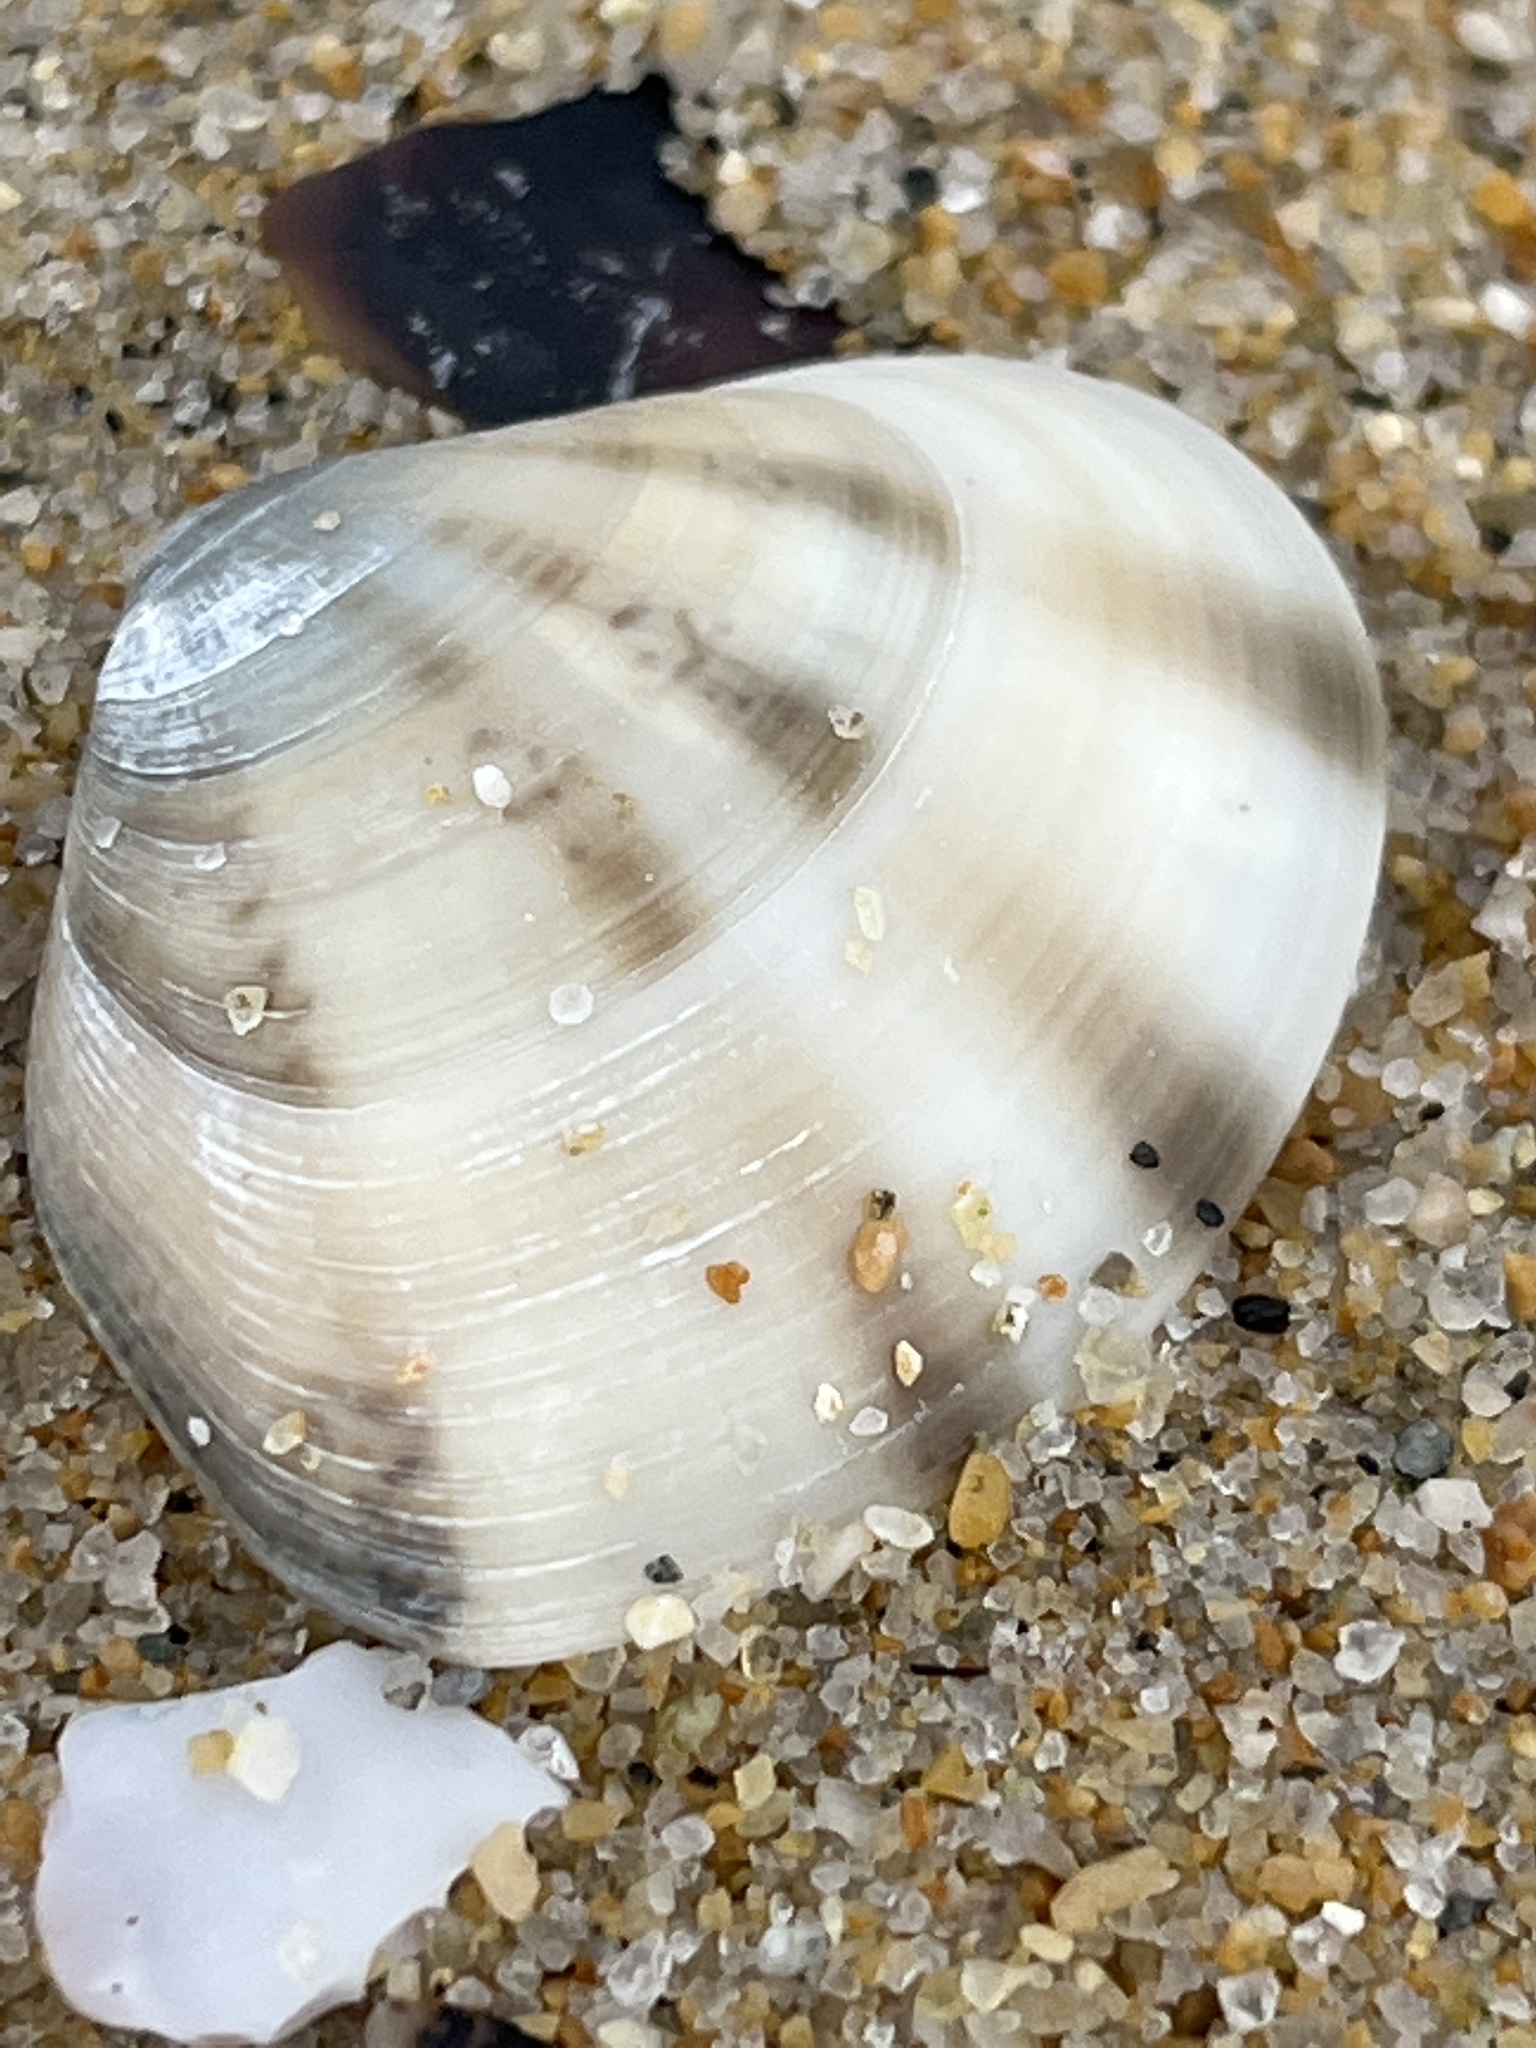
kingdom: Animalia
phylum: Mollusca
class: Bivalvia
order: Venerida
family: Veneridae
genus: Macridiscus
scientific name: Macridiscus aequilatera
